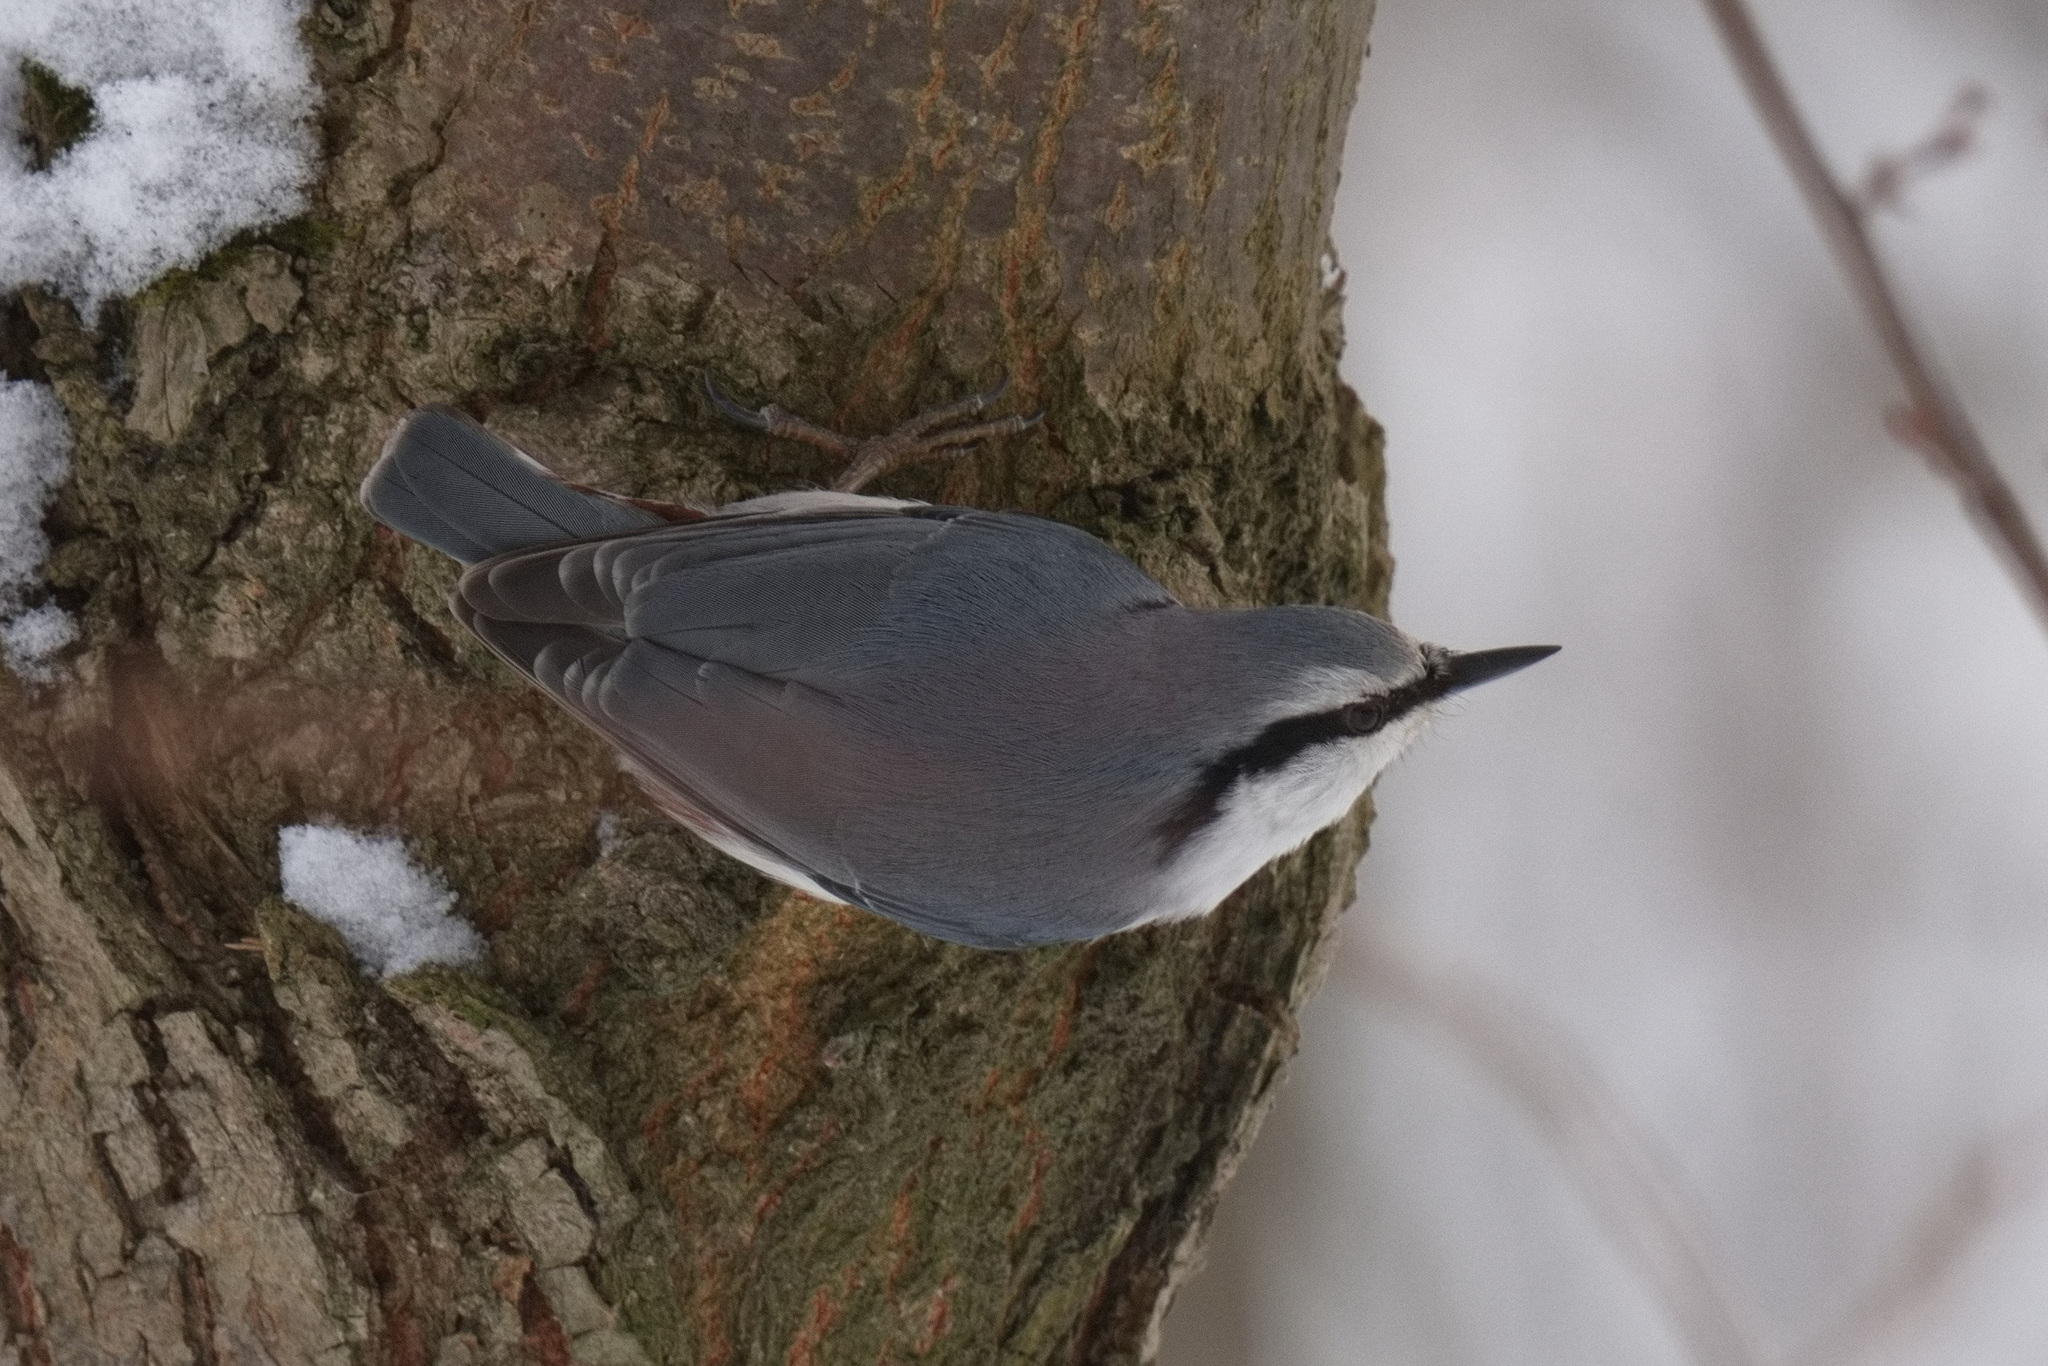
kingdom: Animalia
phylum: Chordata
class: Aves
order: Passeriformes
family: Sittidae
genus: Sitta
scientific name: Sitta europaea
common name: Eurasian nuthatch
